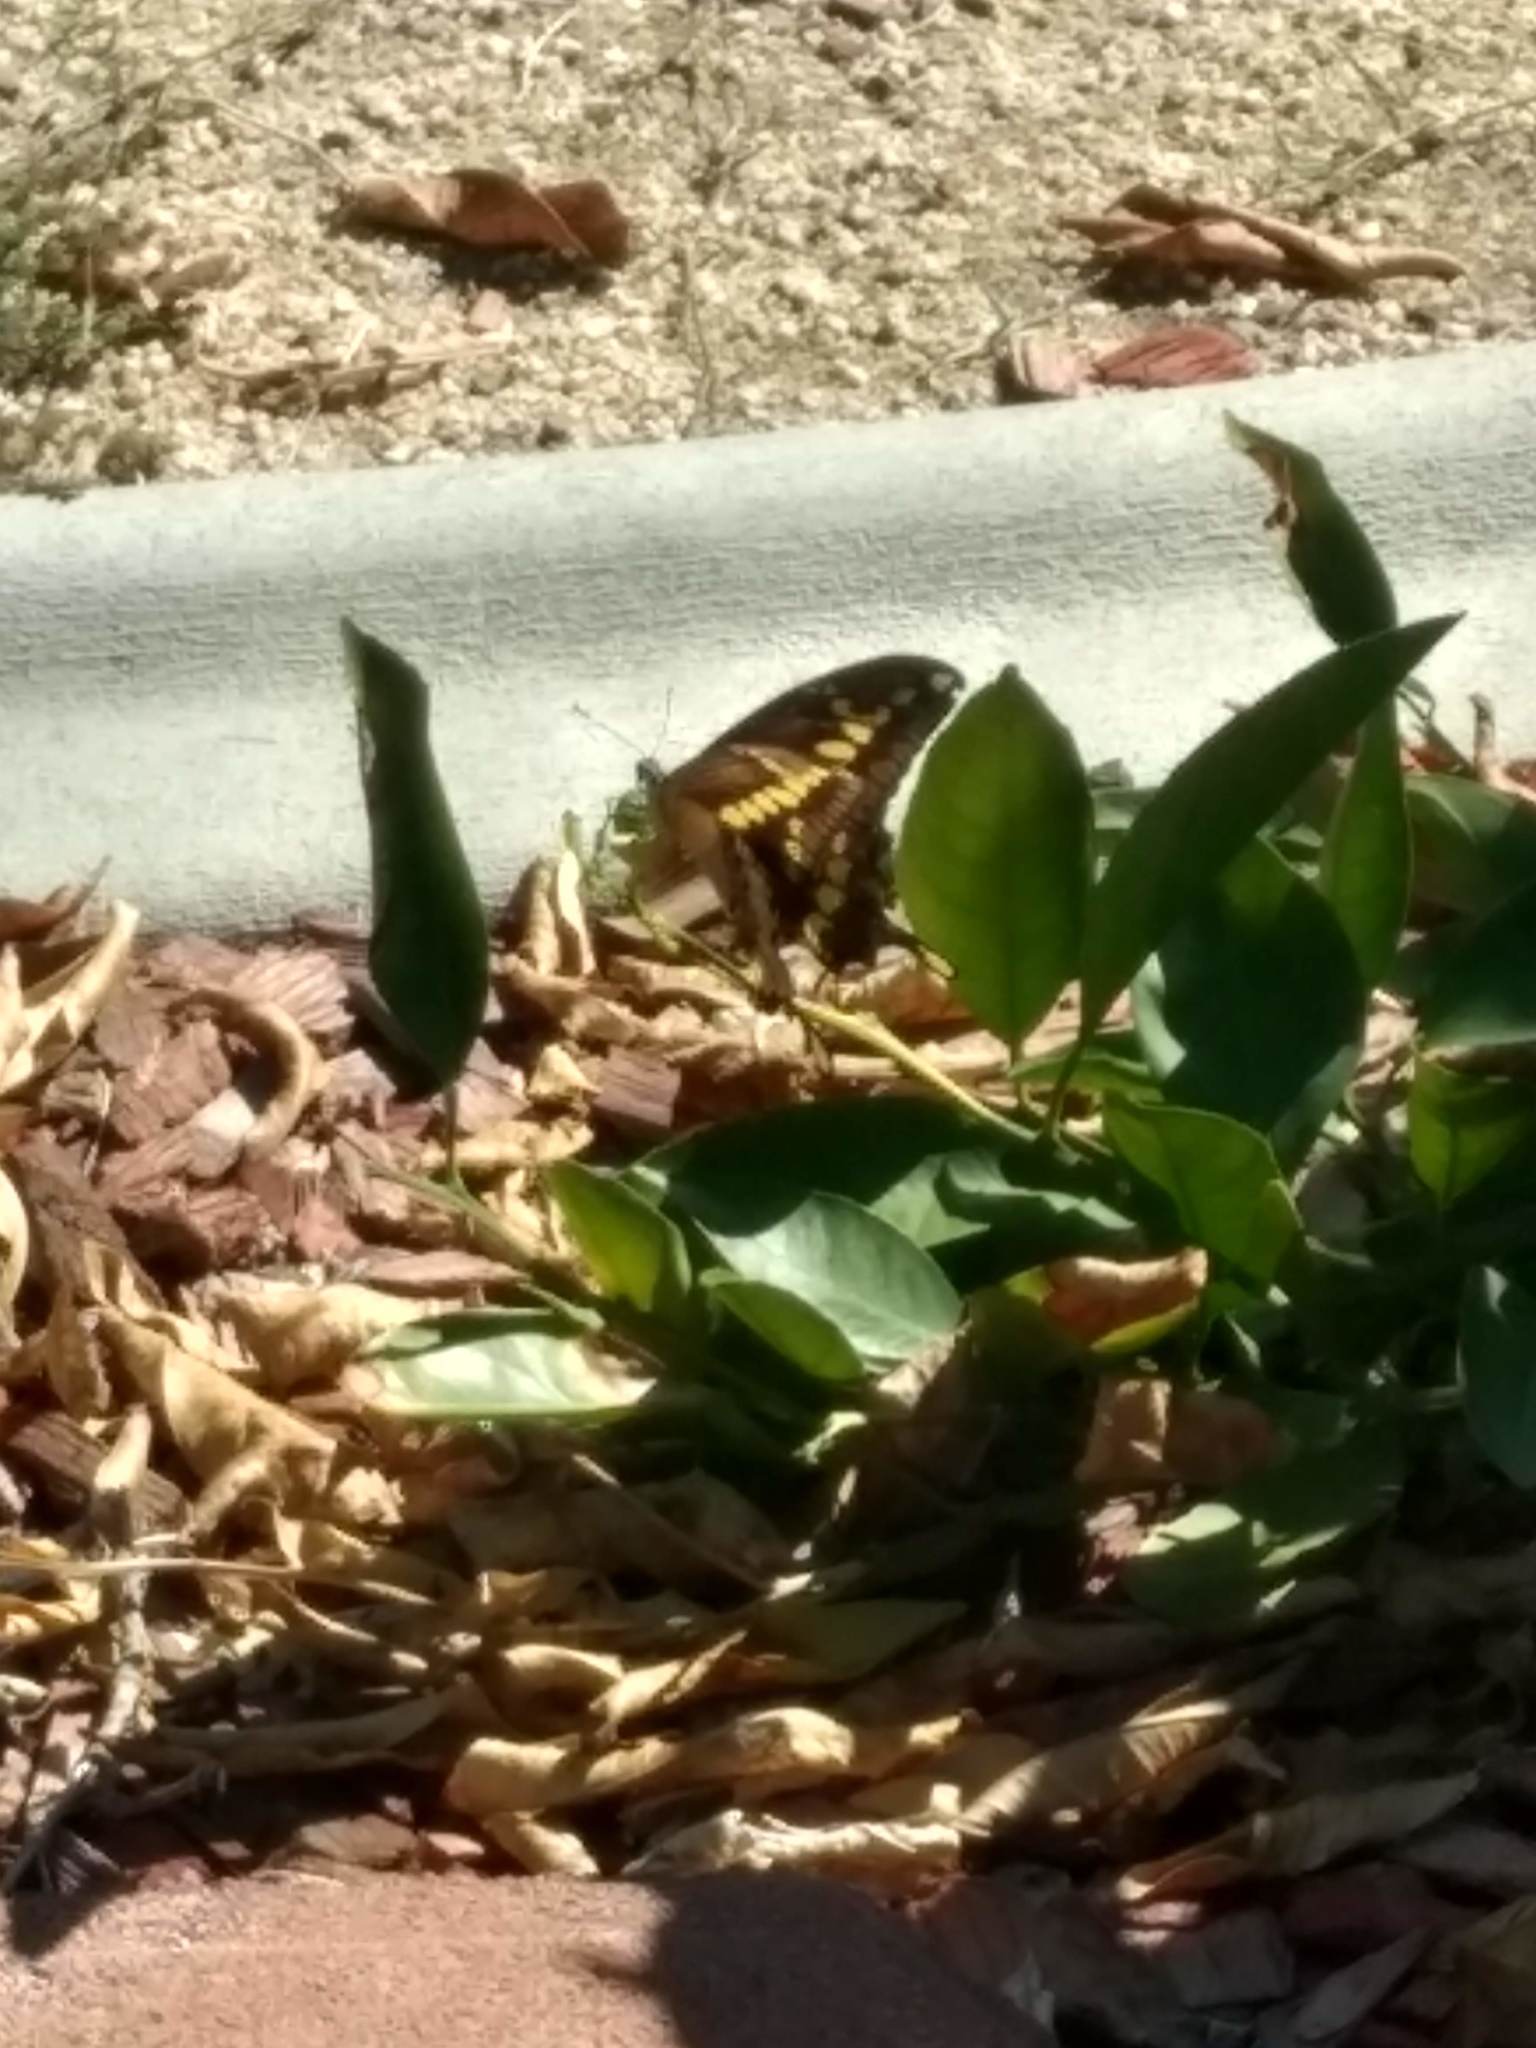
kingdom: Animalia
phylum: Arthropoda
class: Insecta
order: Lepidoptera
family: Papilionidae
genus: Papilio
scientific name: Papilio rumiko
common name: Western giant swallowtail
